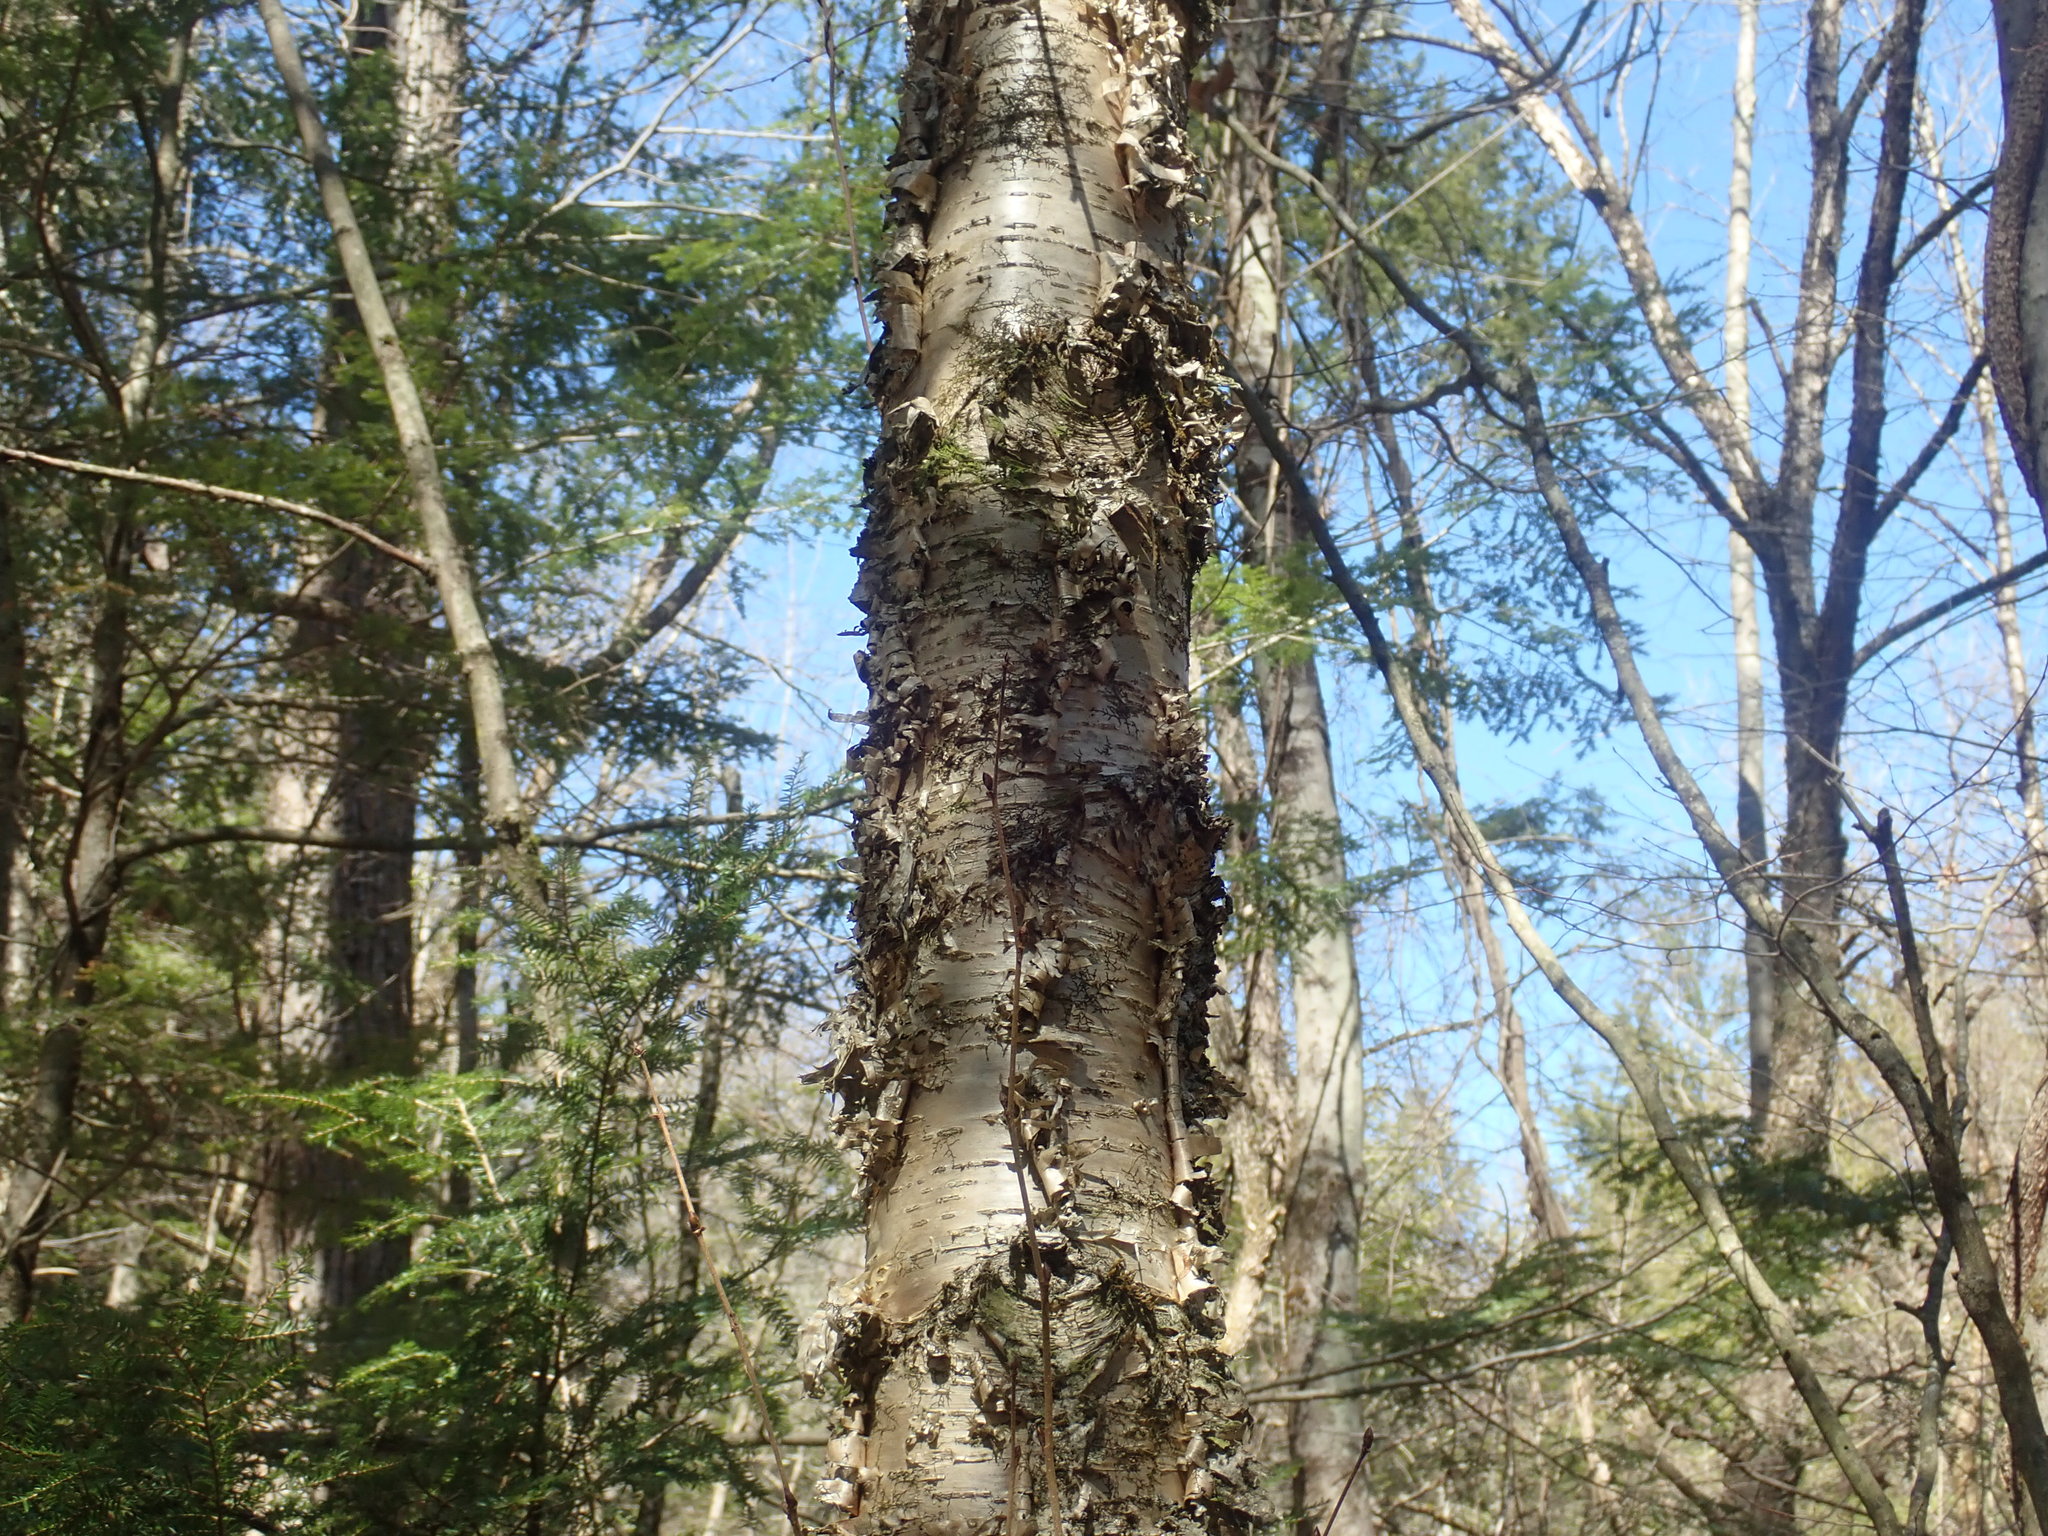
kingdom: Plantae
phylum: Tracheophyta
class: Magnoliopsida
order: Fagales
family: Betulaceae
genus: Betula
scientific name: Betula alleghaniensis
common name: Yellow birch
